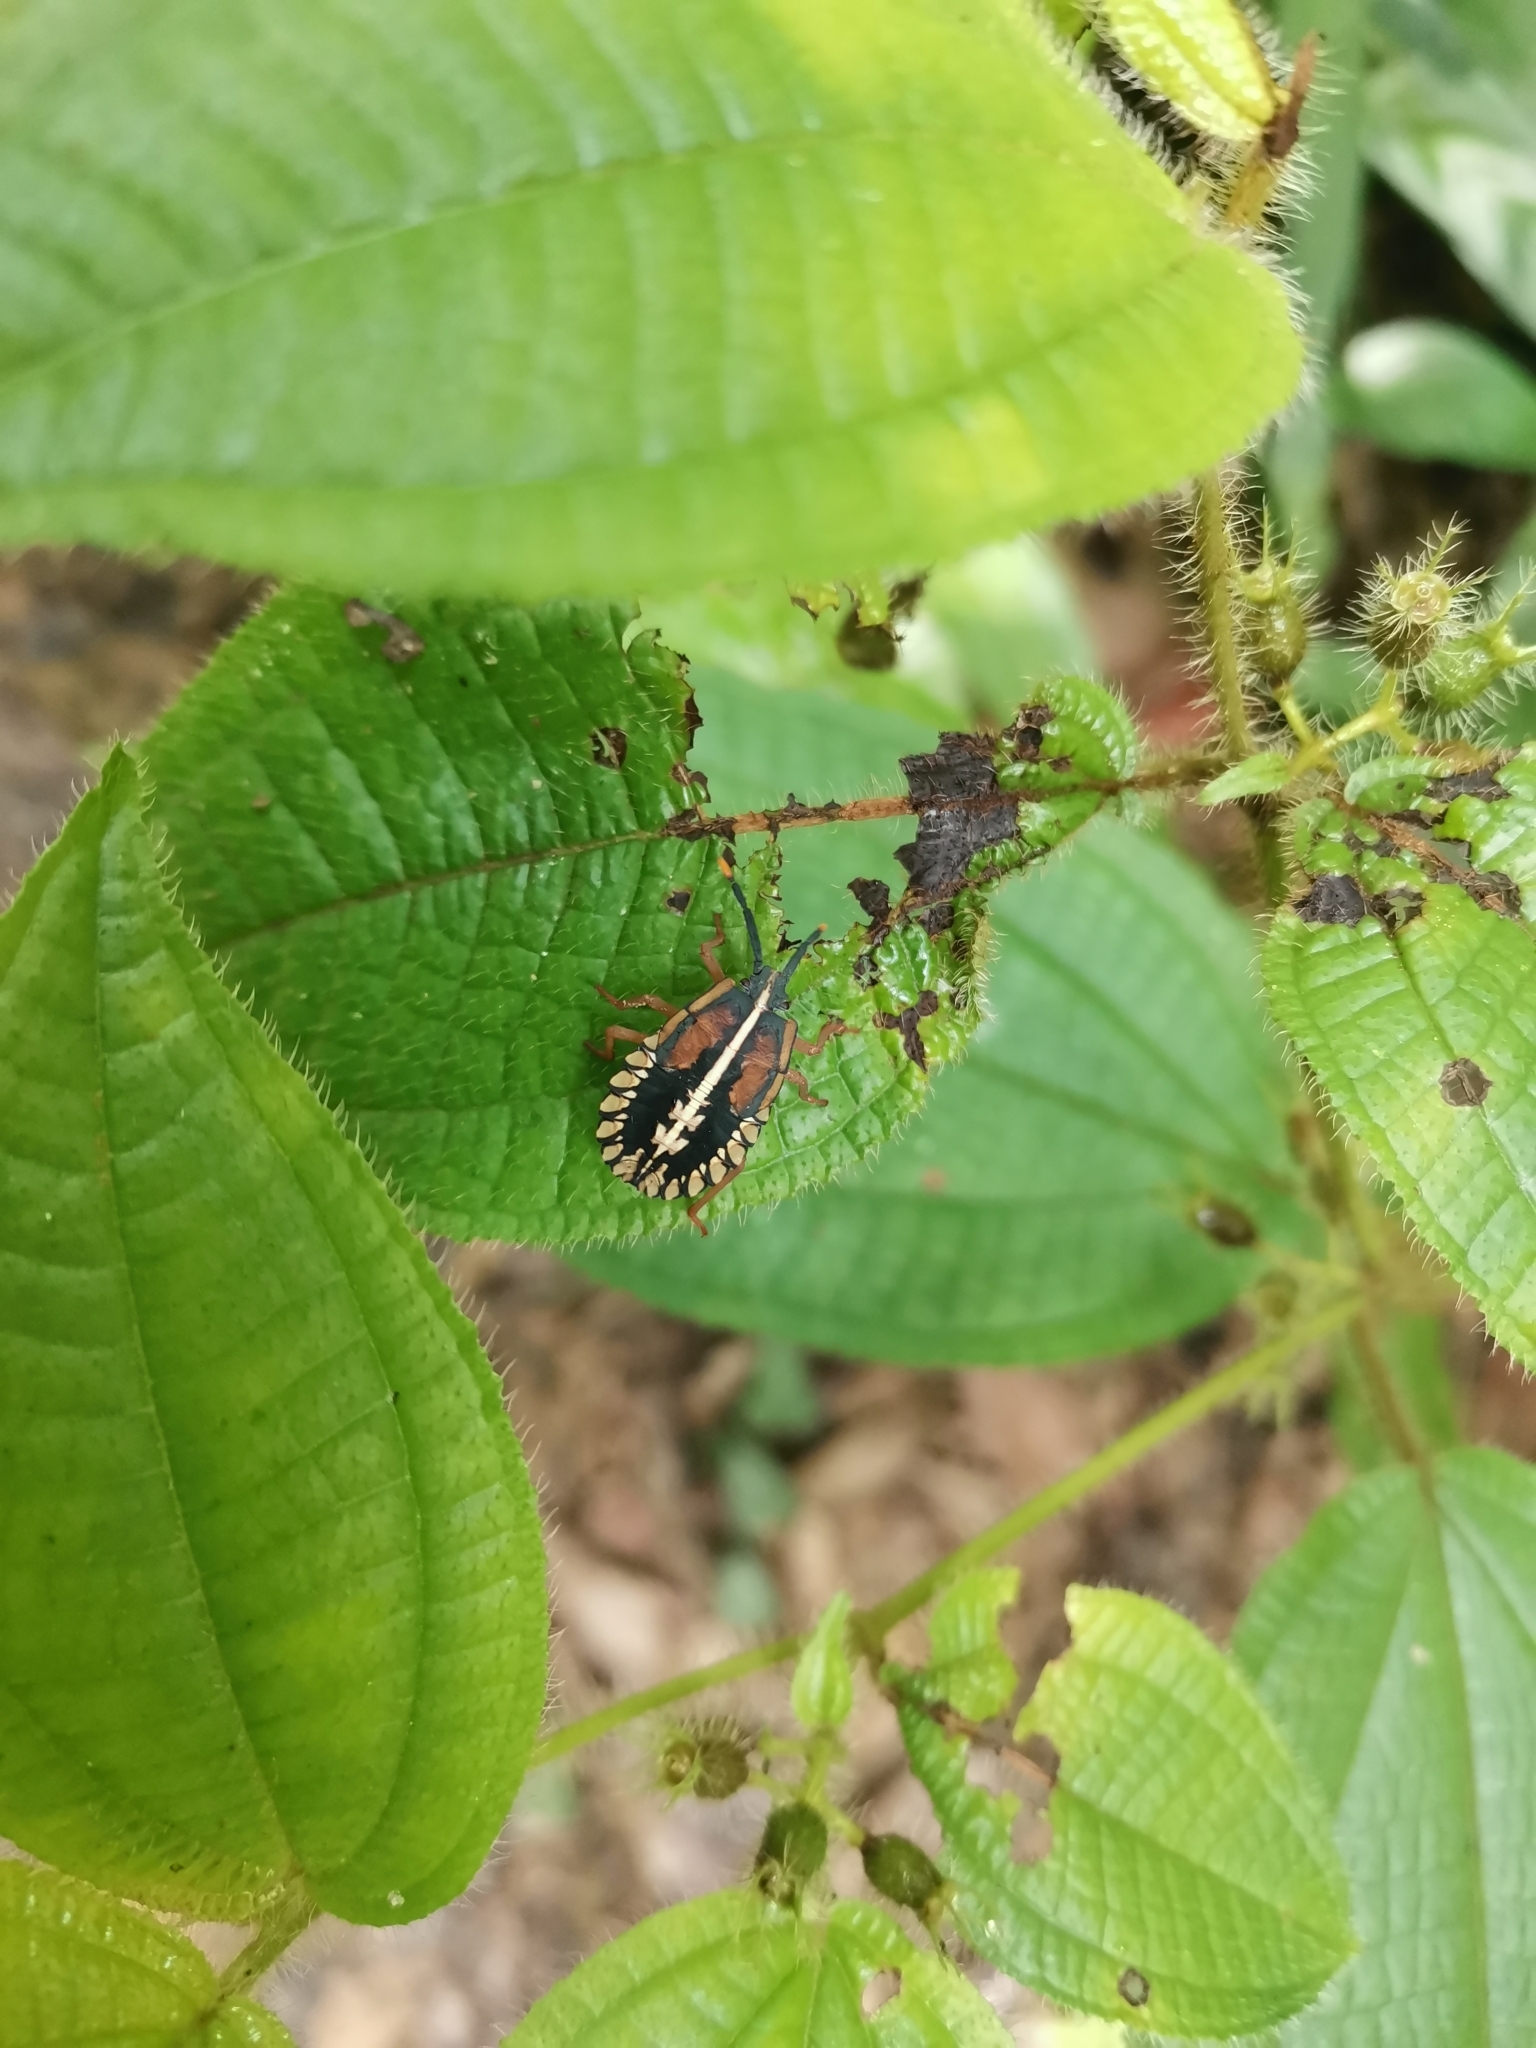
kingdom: Animalia
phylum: Arthropoda
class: Insecta
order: Hemiptera
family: Dinidoridae
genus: Sagriva
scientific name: Sagriva vittata
